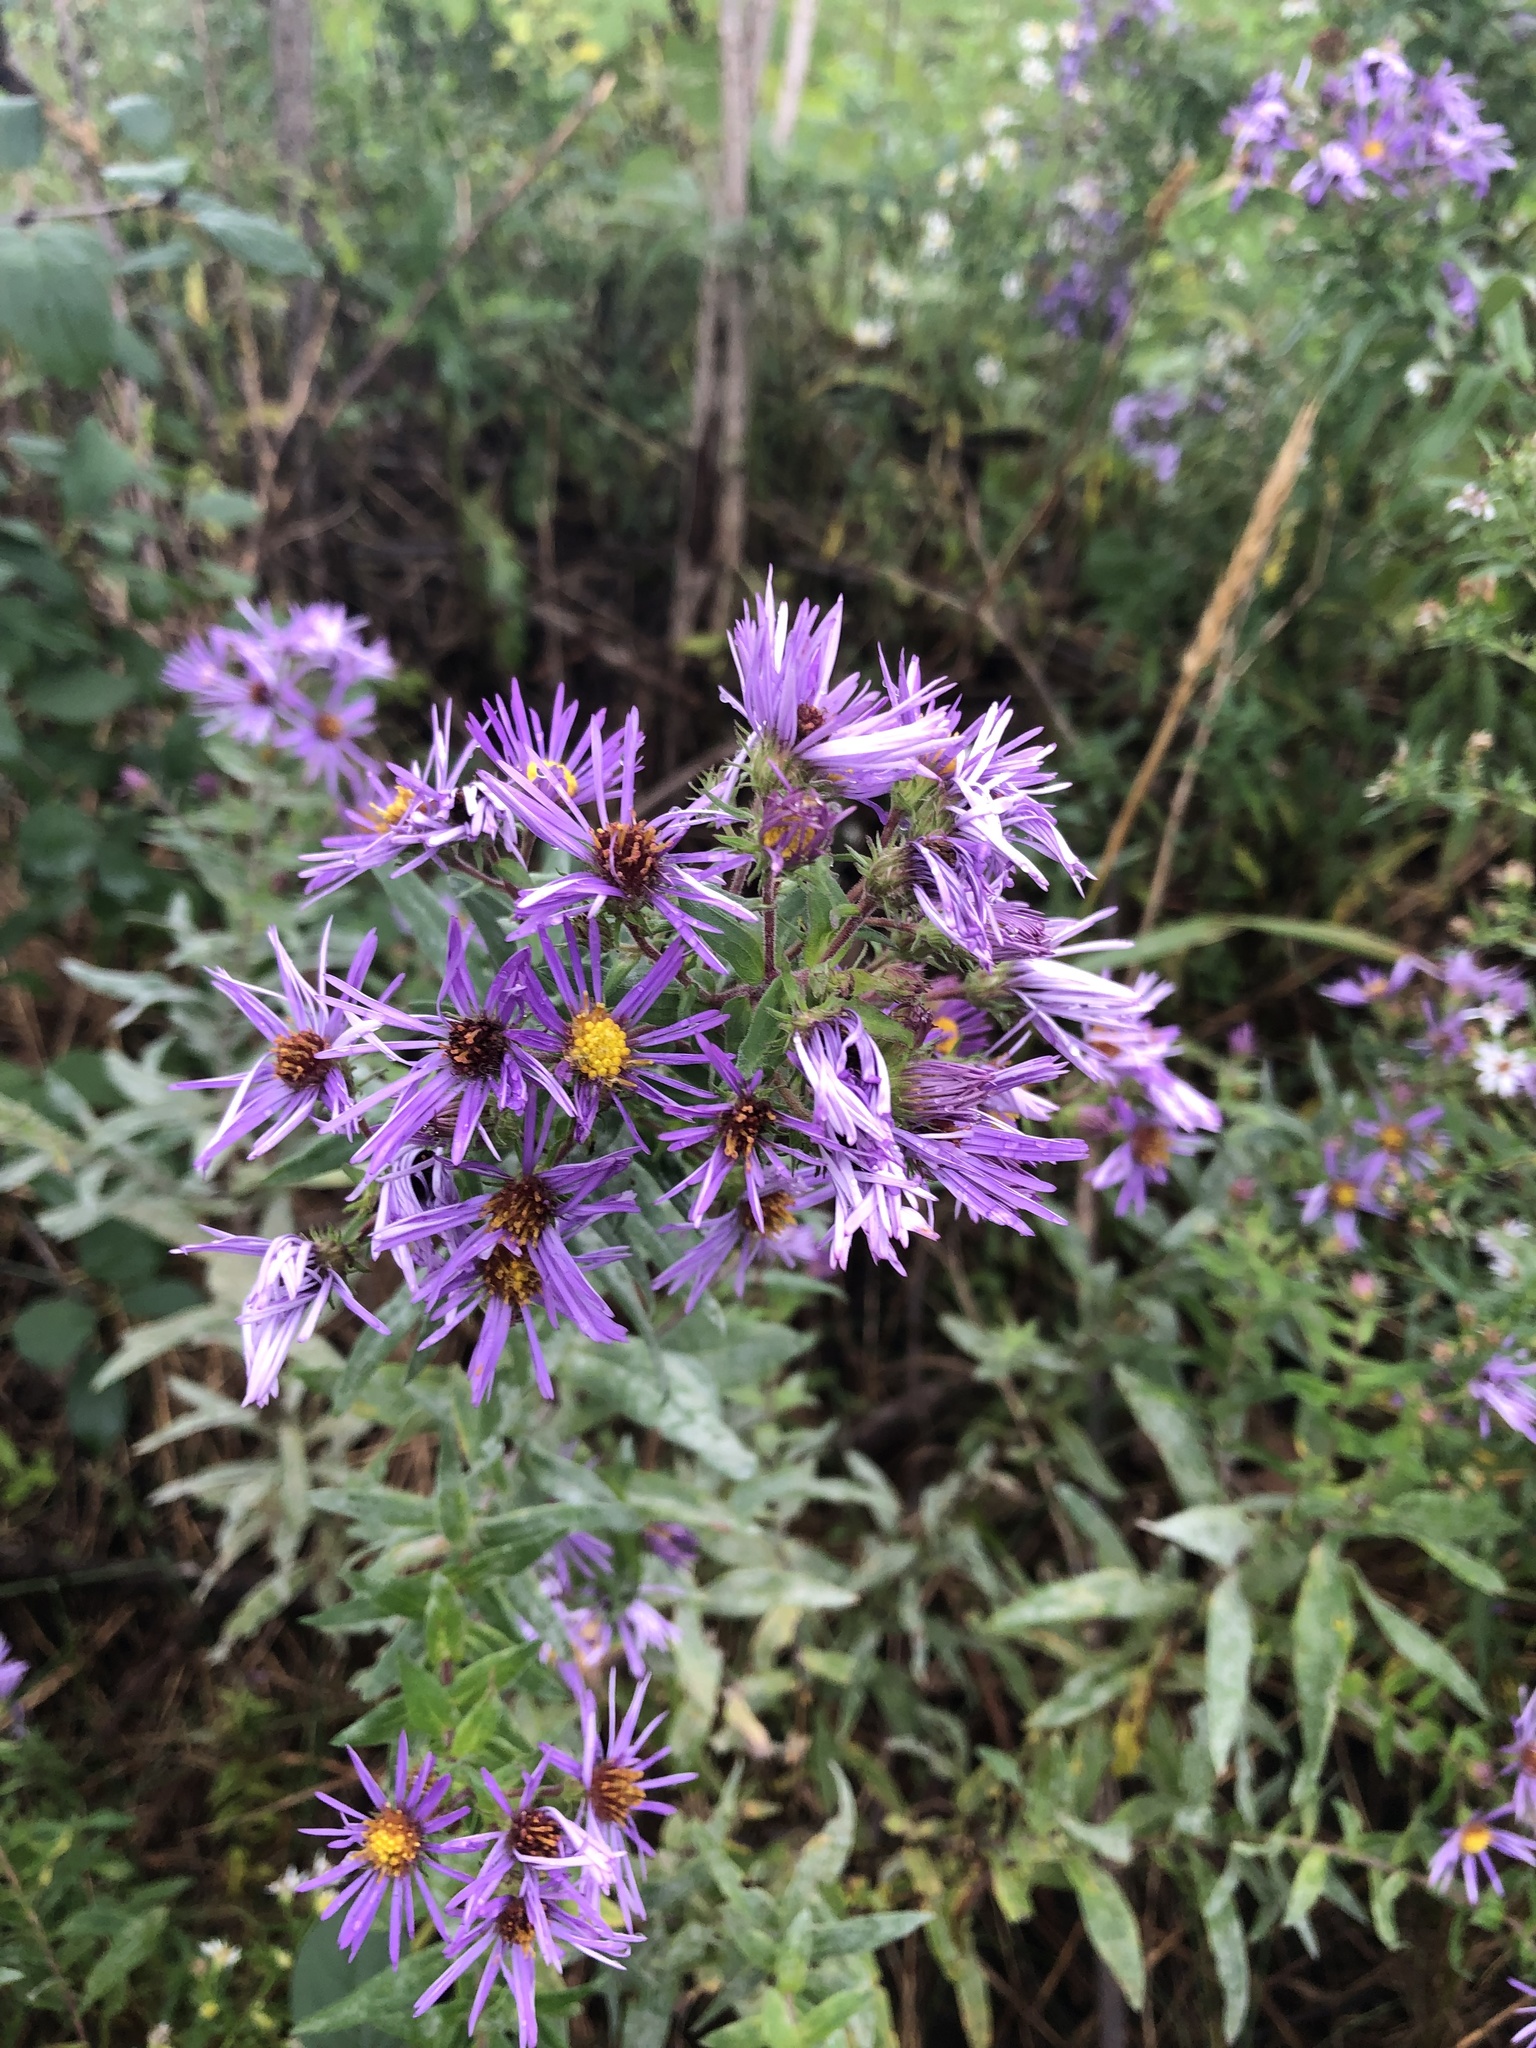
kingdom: Plantae
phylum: Tracheophyta
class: Magnoliopsida
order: Asterales
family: Asteraceae
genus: Symphyotrichum
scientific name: Symphyotrichum novae-angliae
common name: Michaelmas daisy
